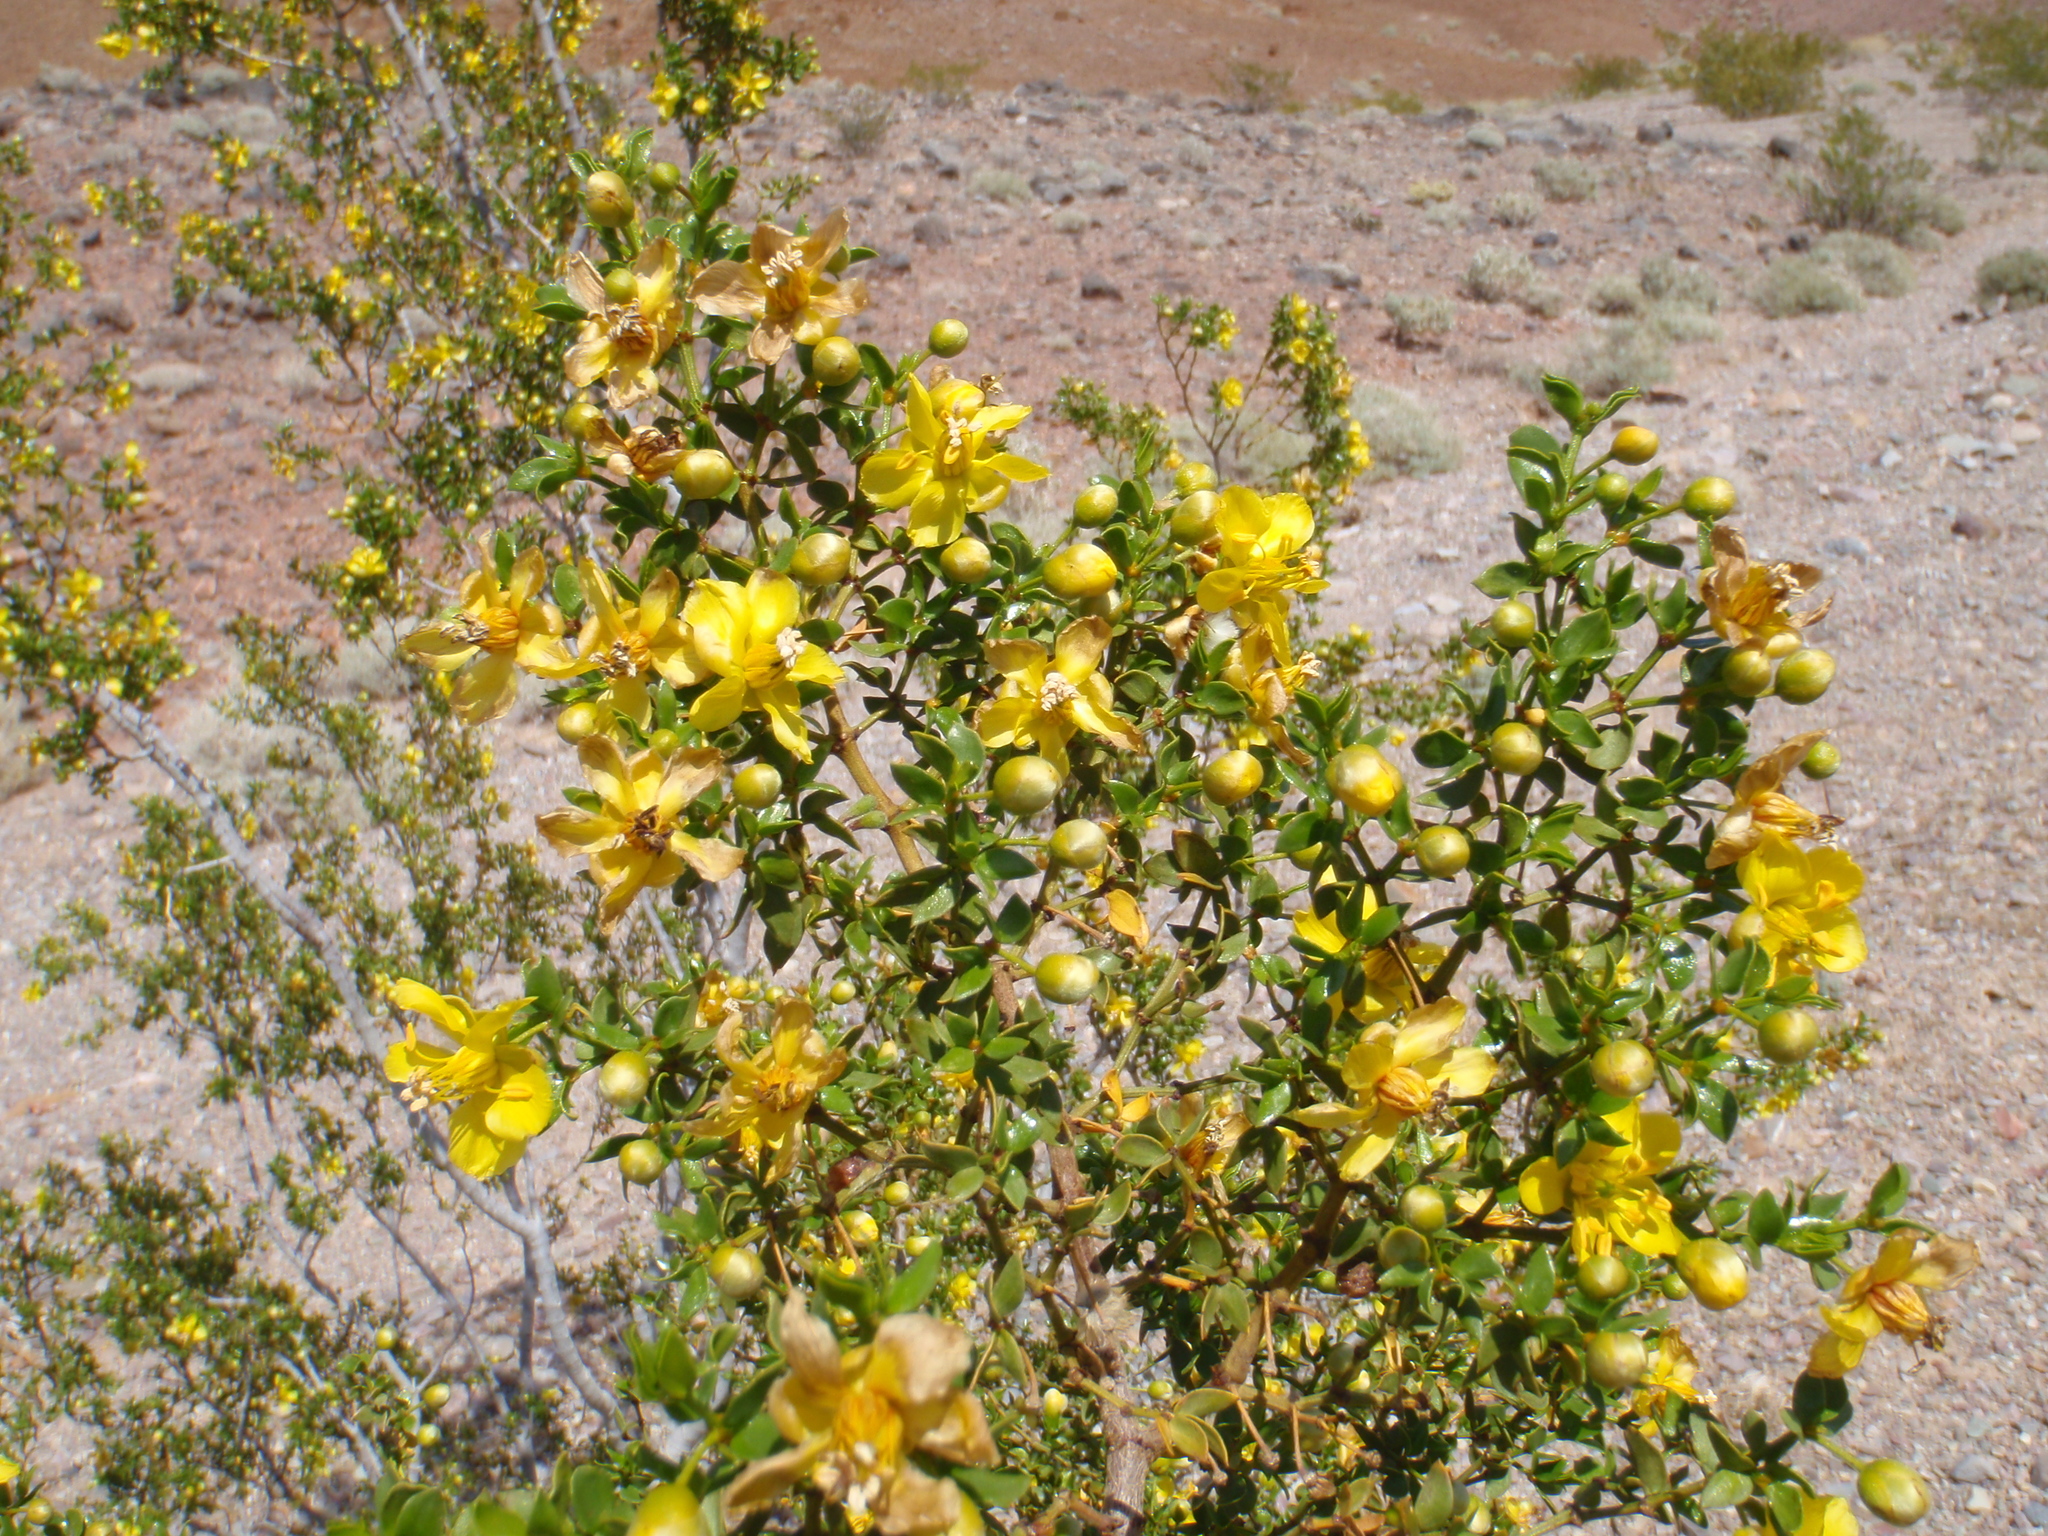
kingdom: Plantae
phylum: Tracheophyta
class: Magnoliopsida
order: Zygophyllales
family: Zygophyllaceae
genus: Larrea
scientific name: Larrea tridentata
